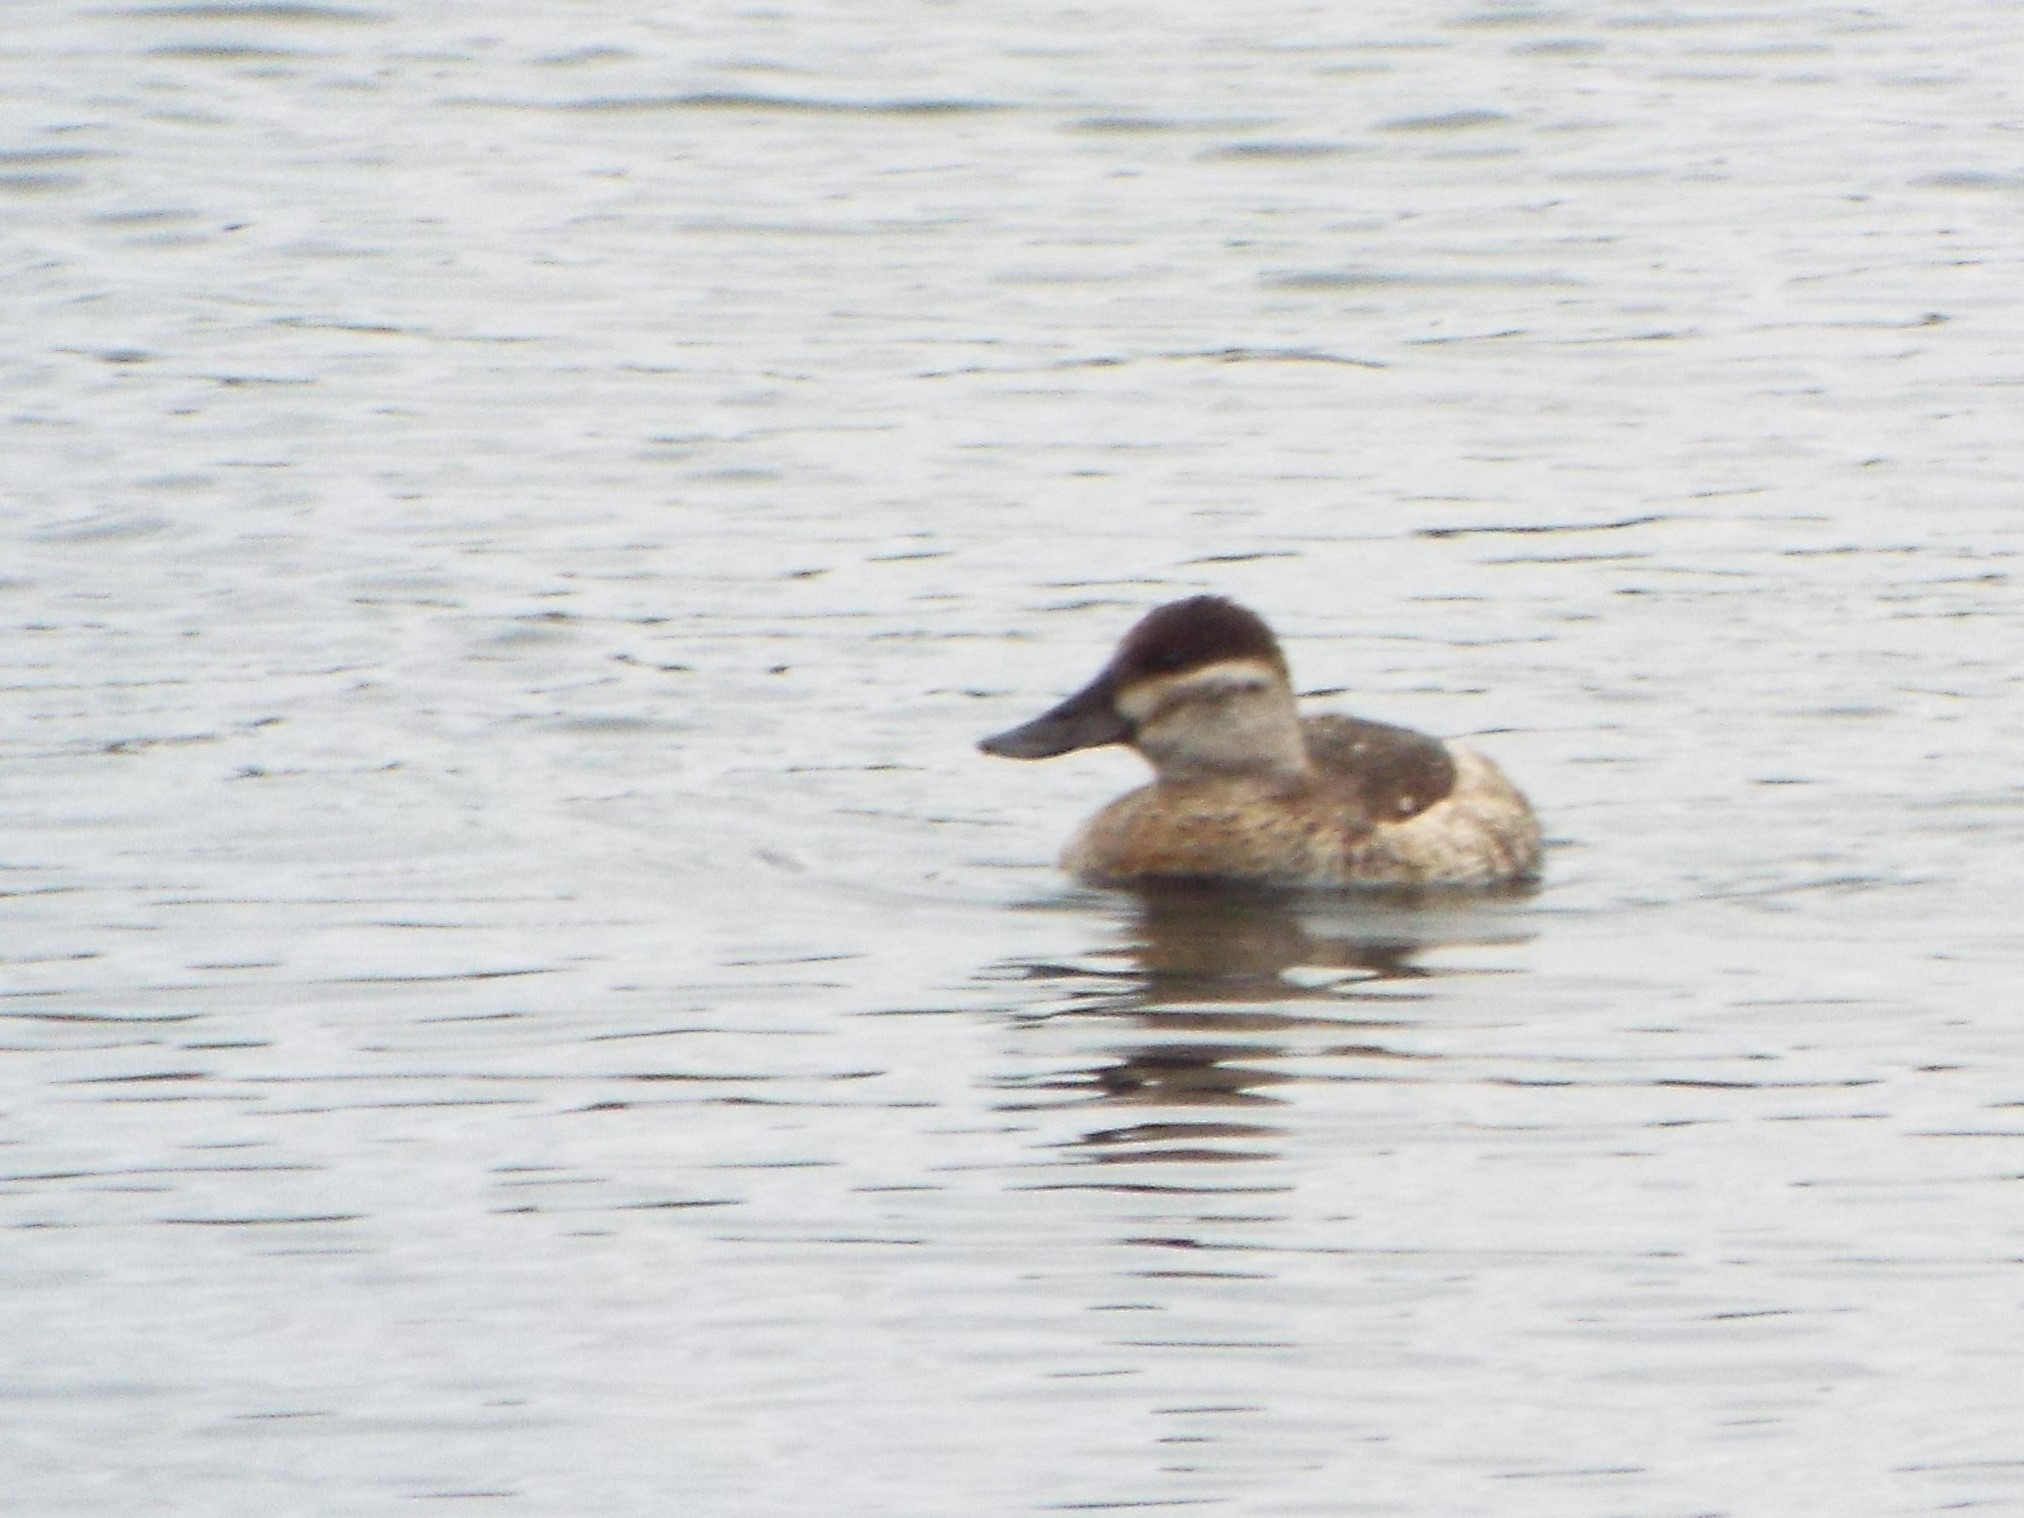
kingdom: Animalia
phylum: Chordata
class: Aves
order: Anseriformes
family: Anatidae
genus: Oxyura
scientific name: Oxyura jamaicensis
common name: Ruddy duck
